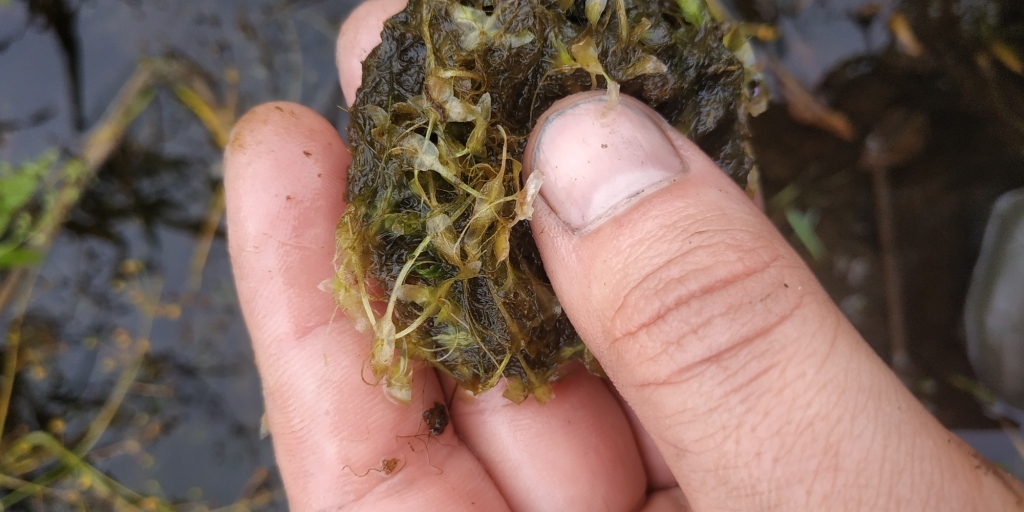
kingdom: Plantae
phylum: Tracheophyta
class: Liliopsida
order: Alismatales
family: Araceae
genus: Lemna
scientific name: Lemna trisulca
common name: Ivy-leaved duckweed
